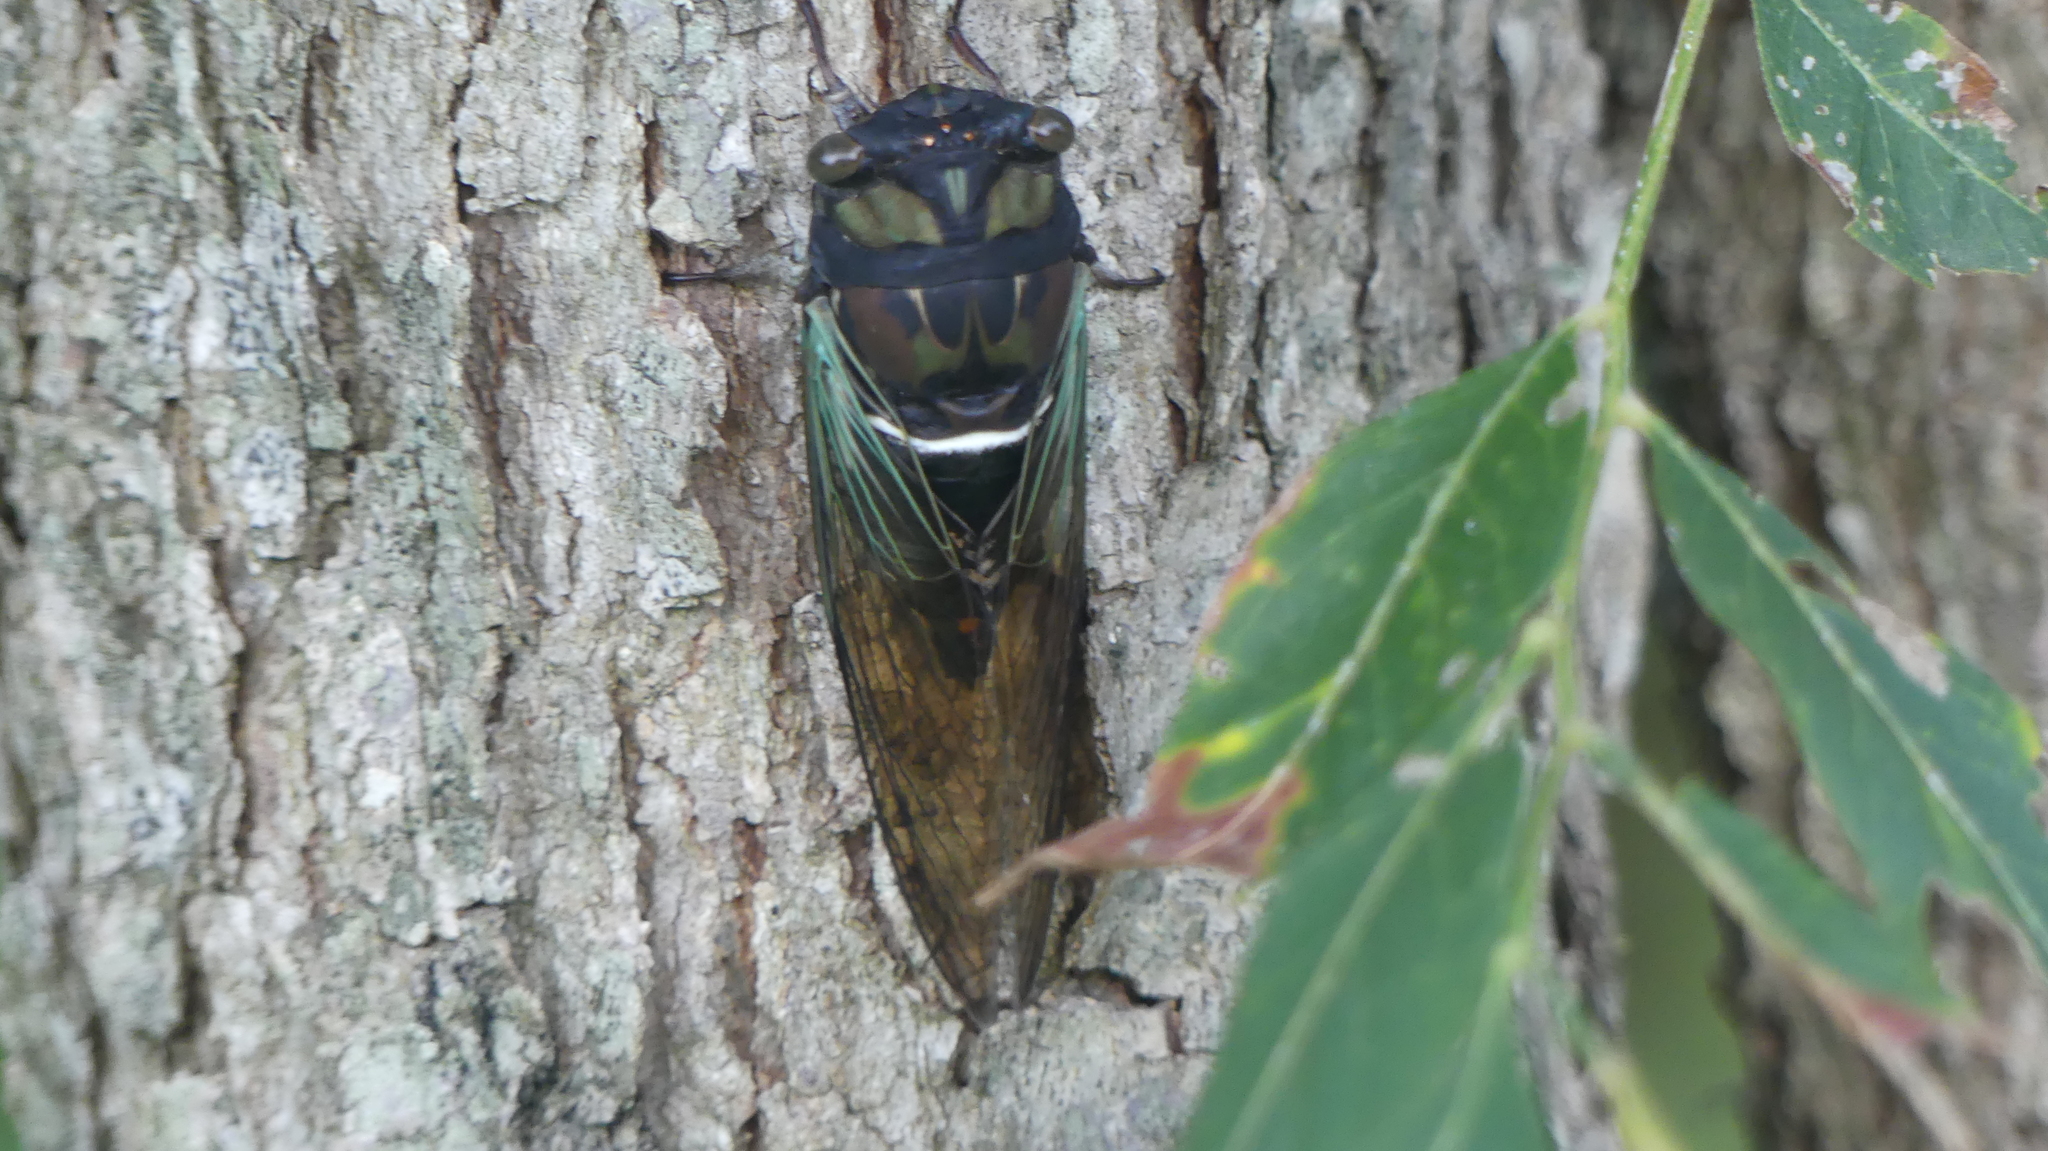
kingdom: Animalia
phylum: Arthropoda
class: Insecta
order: Hemiptera
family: Cicadidae
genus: Neotibicen
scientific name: Neotibicen lyricen
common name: Lyric cicada
